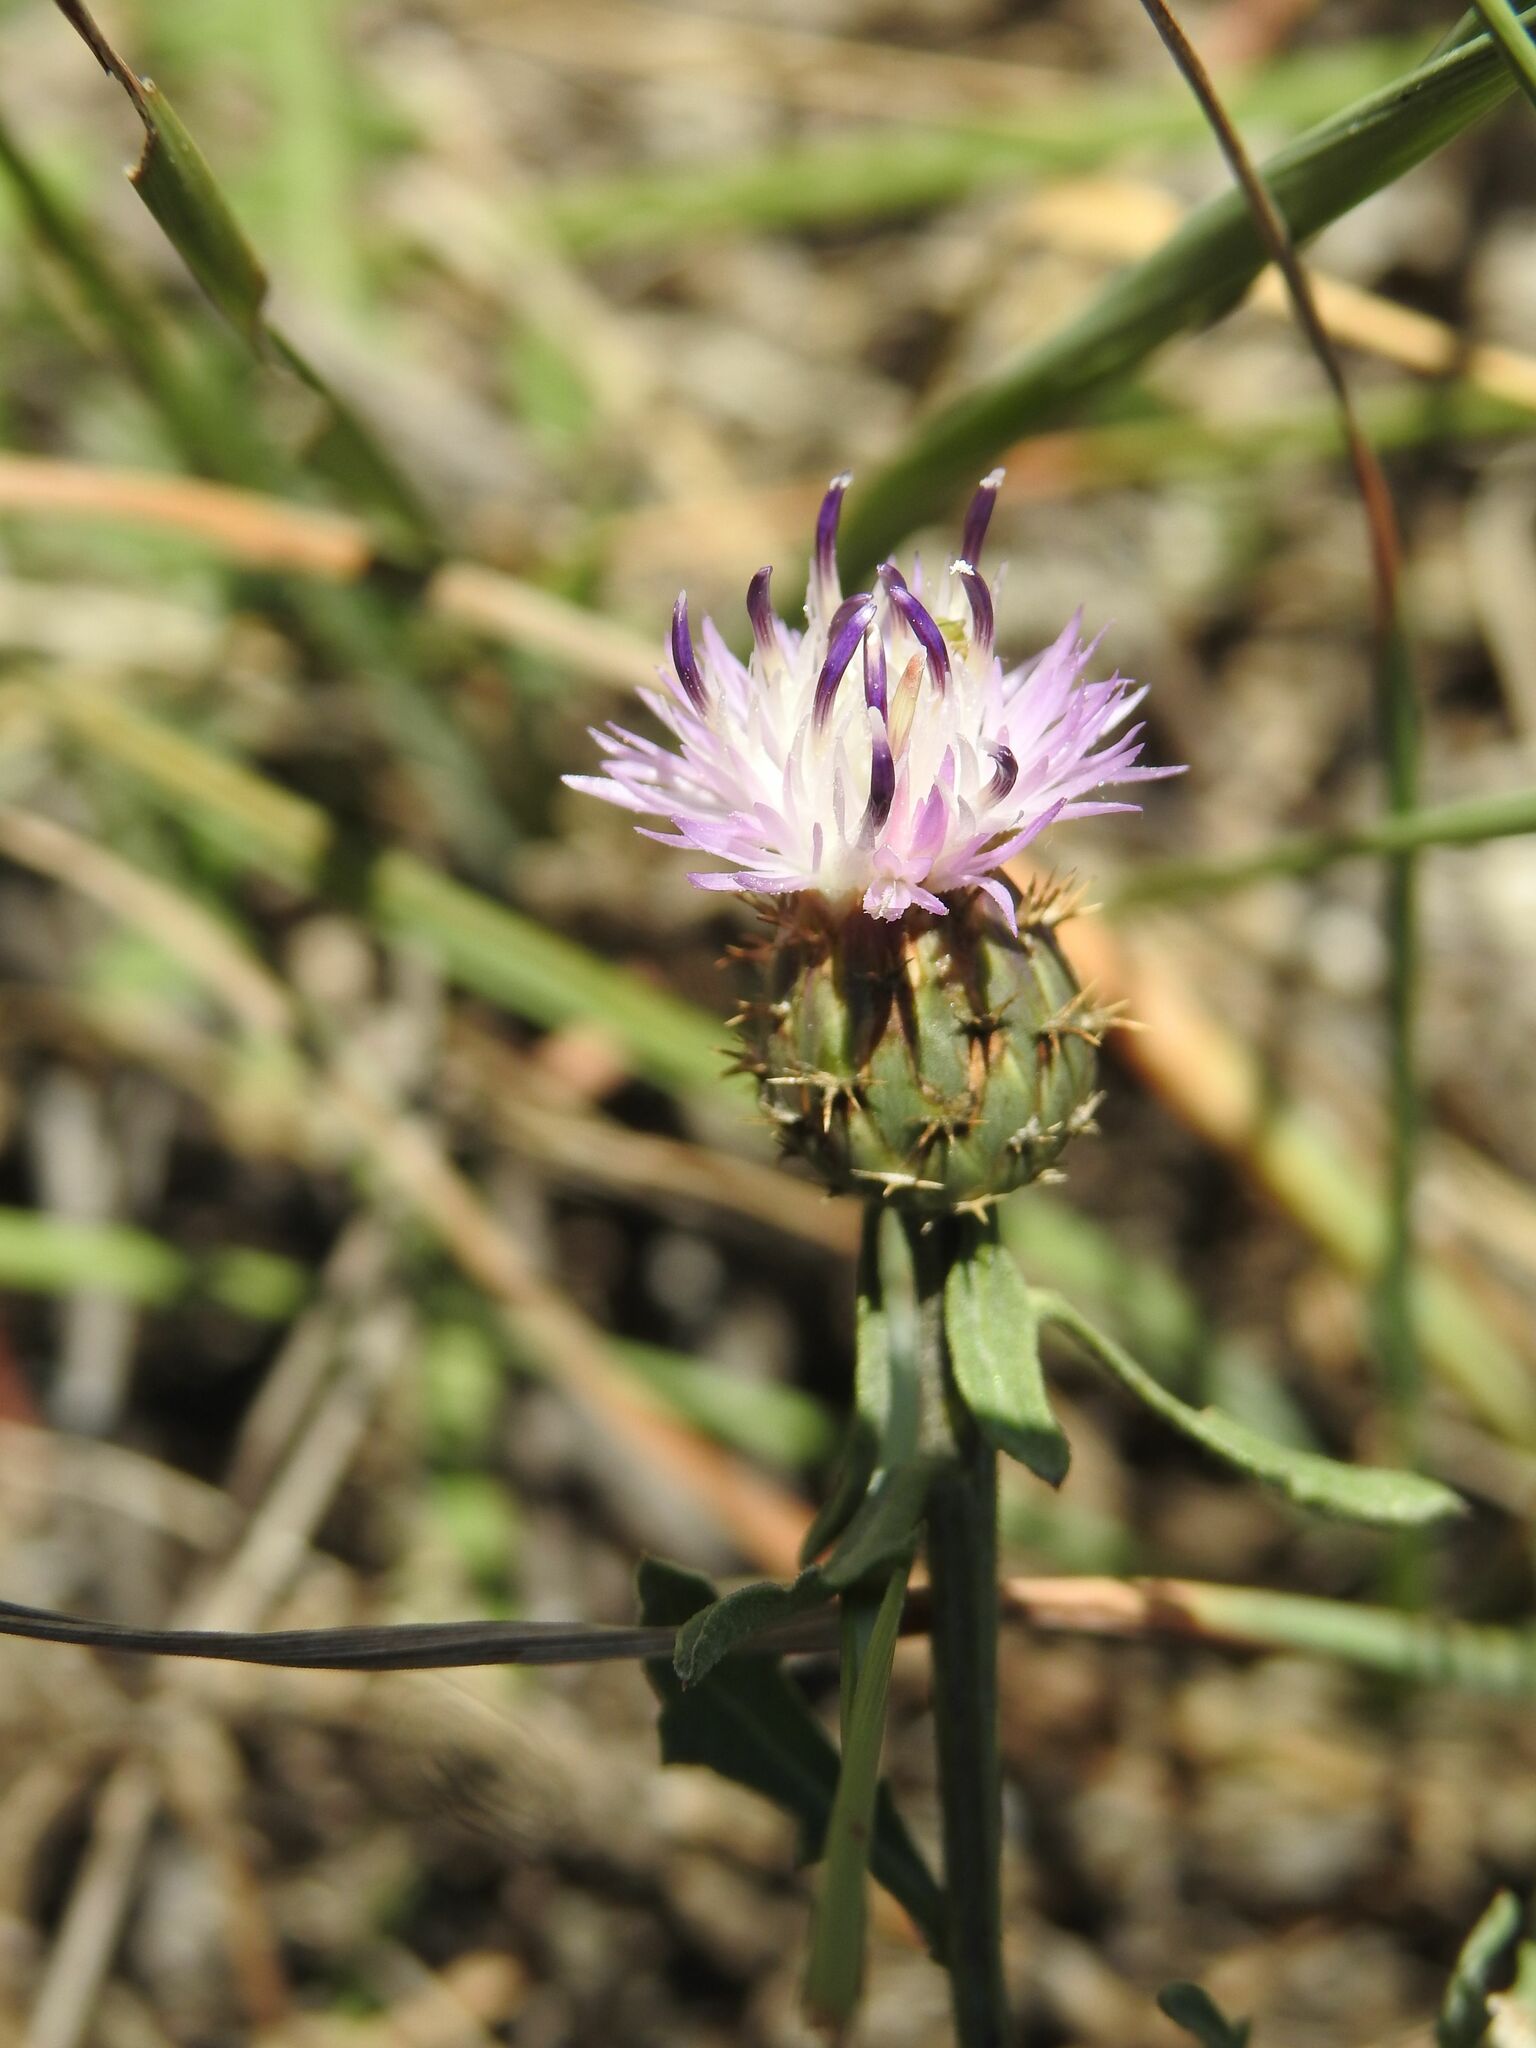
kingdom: Plantae
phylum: Tracheophyta
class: Magnoliopsida
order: Asterales
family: Asteraceae
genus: Centaurea
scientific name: Centaurea aspera
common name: Rough star-thistle
